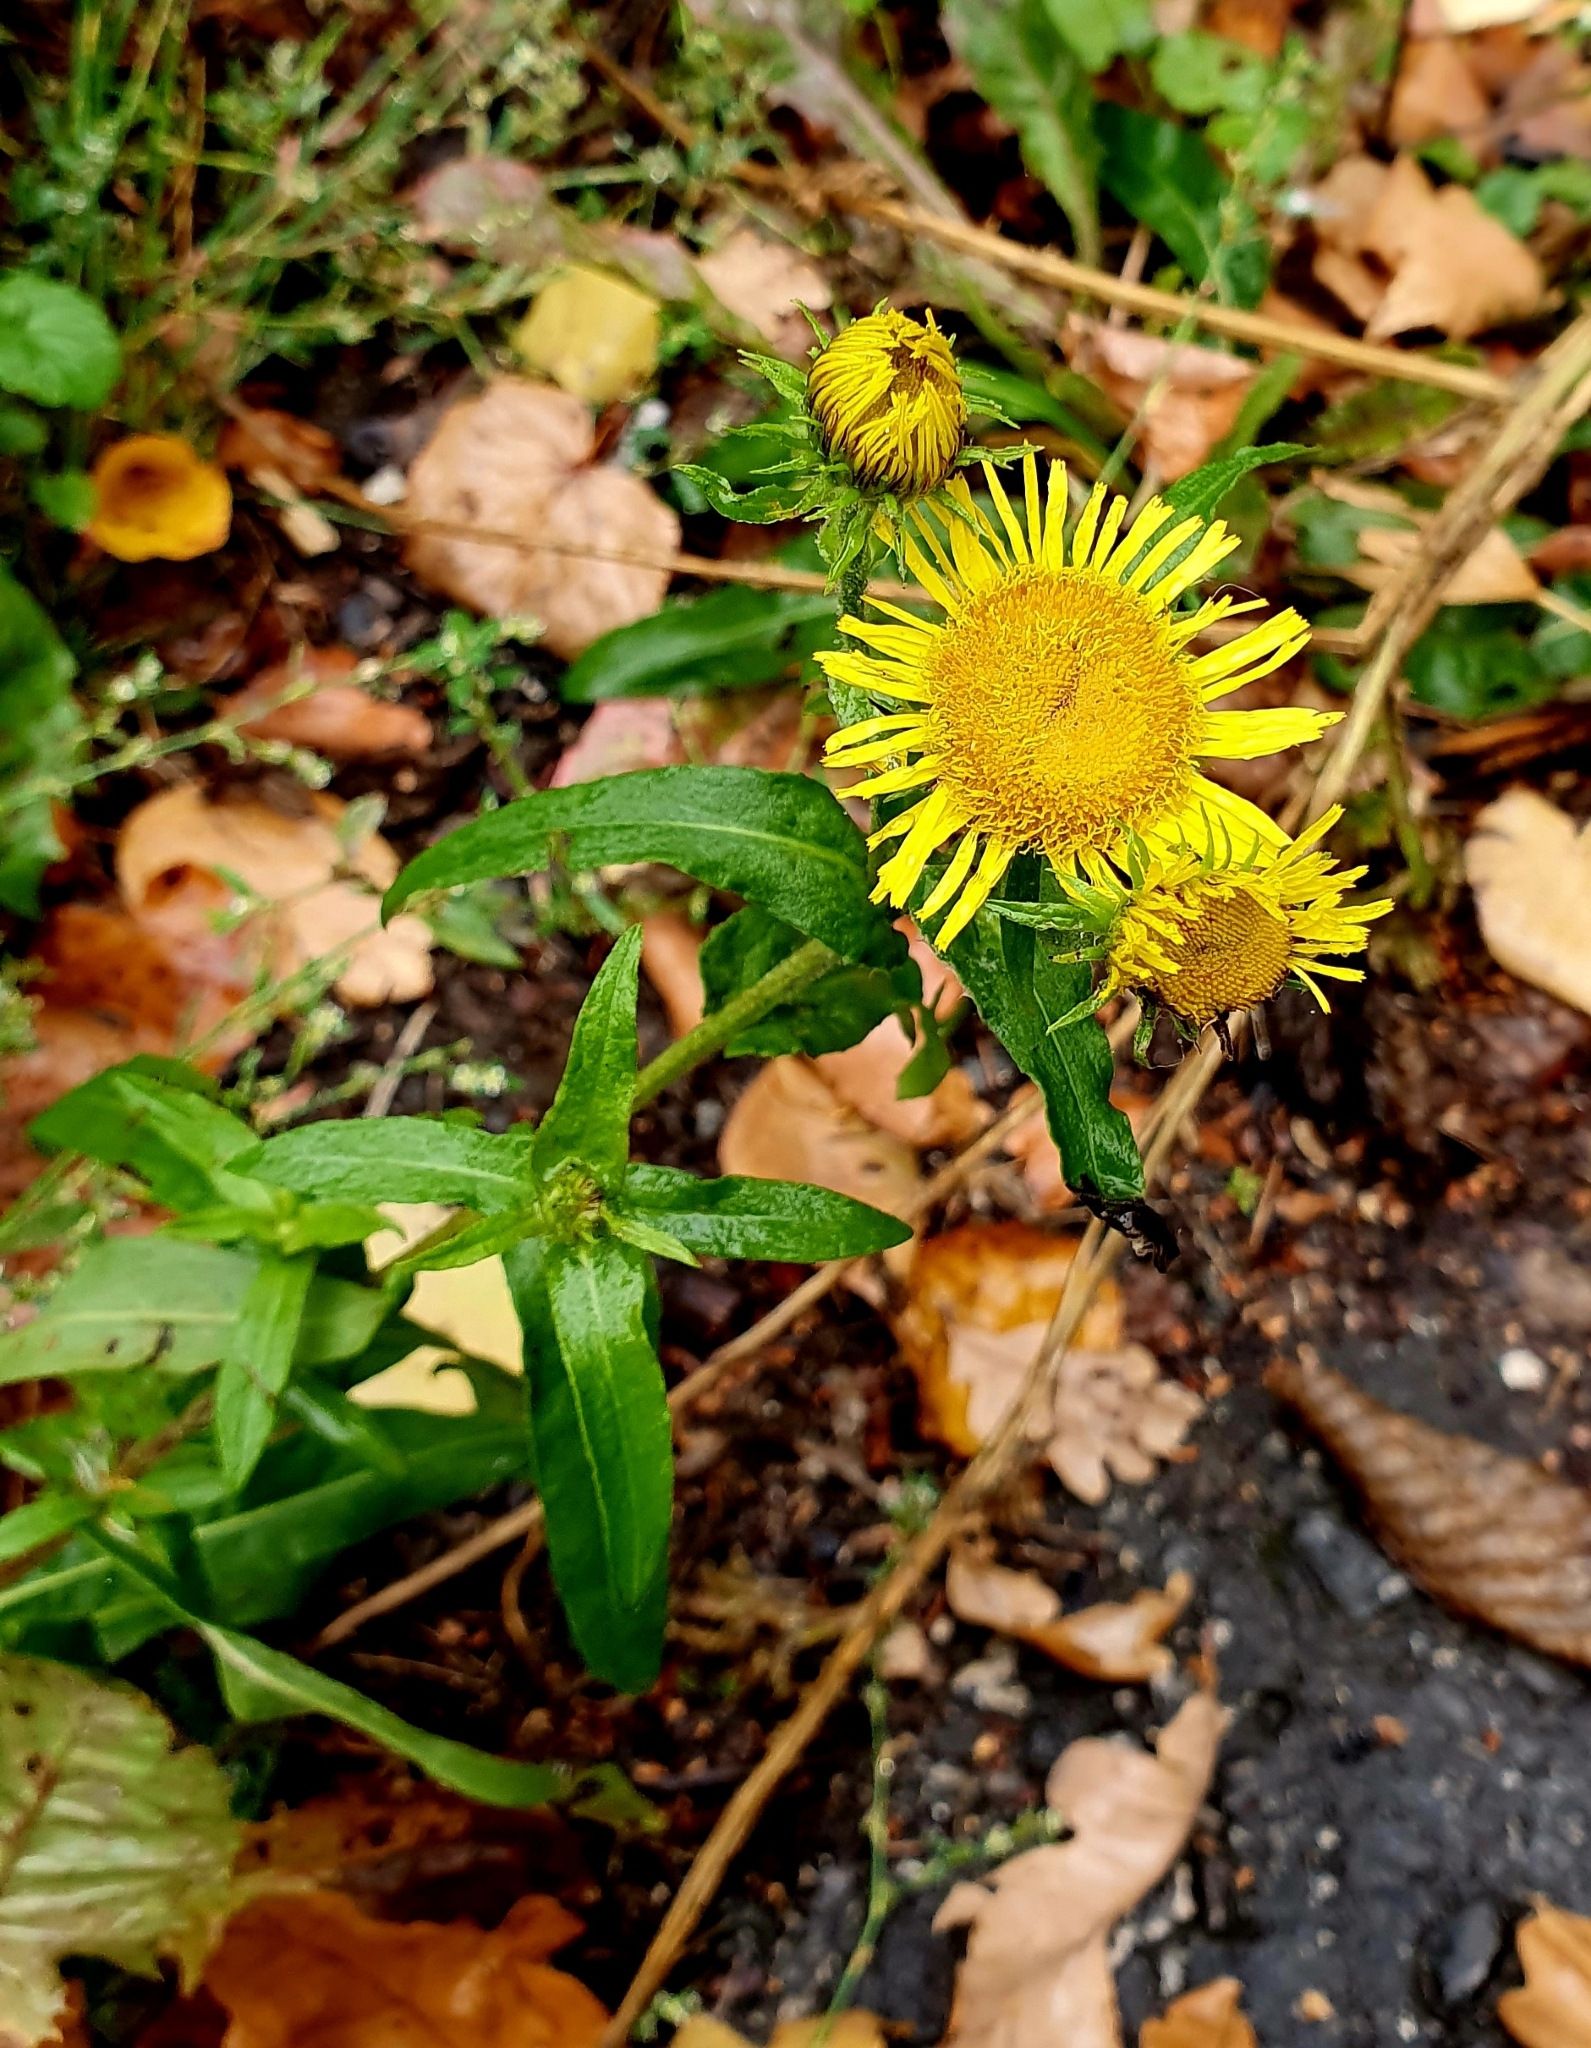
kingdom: Plantae
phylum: Tracheophyta
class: Magnoliopsida
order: Asterales
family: Asteraceae
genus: Pentanema
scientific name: Pentanema britannicum
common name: British elecampane
